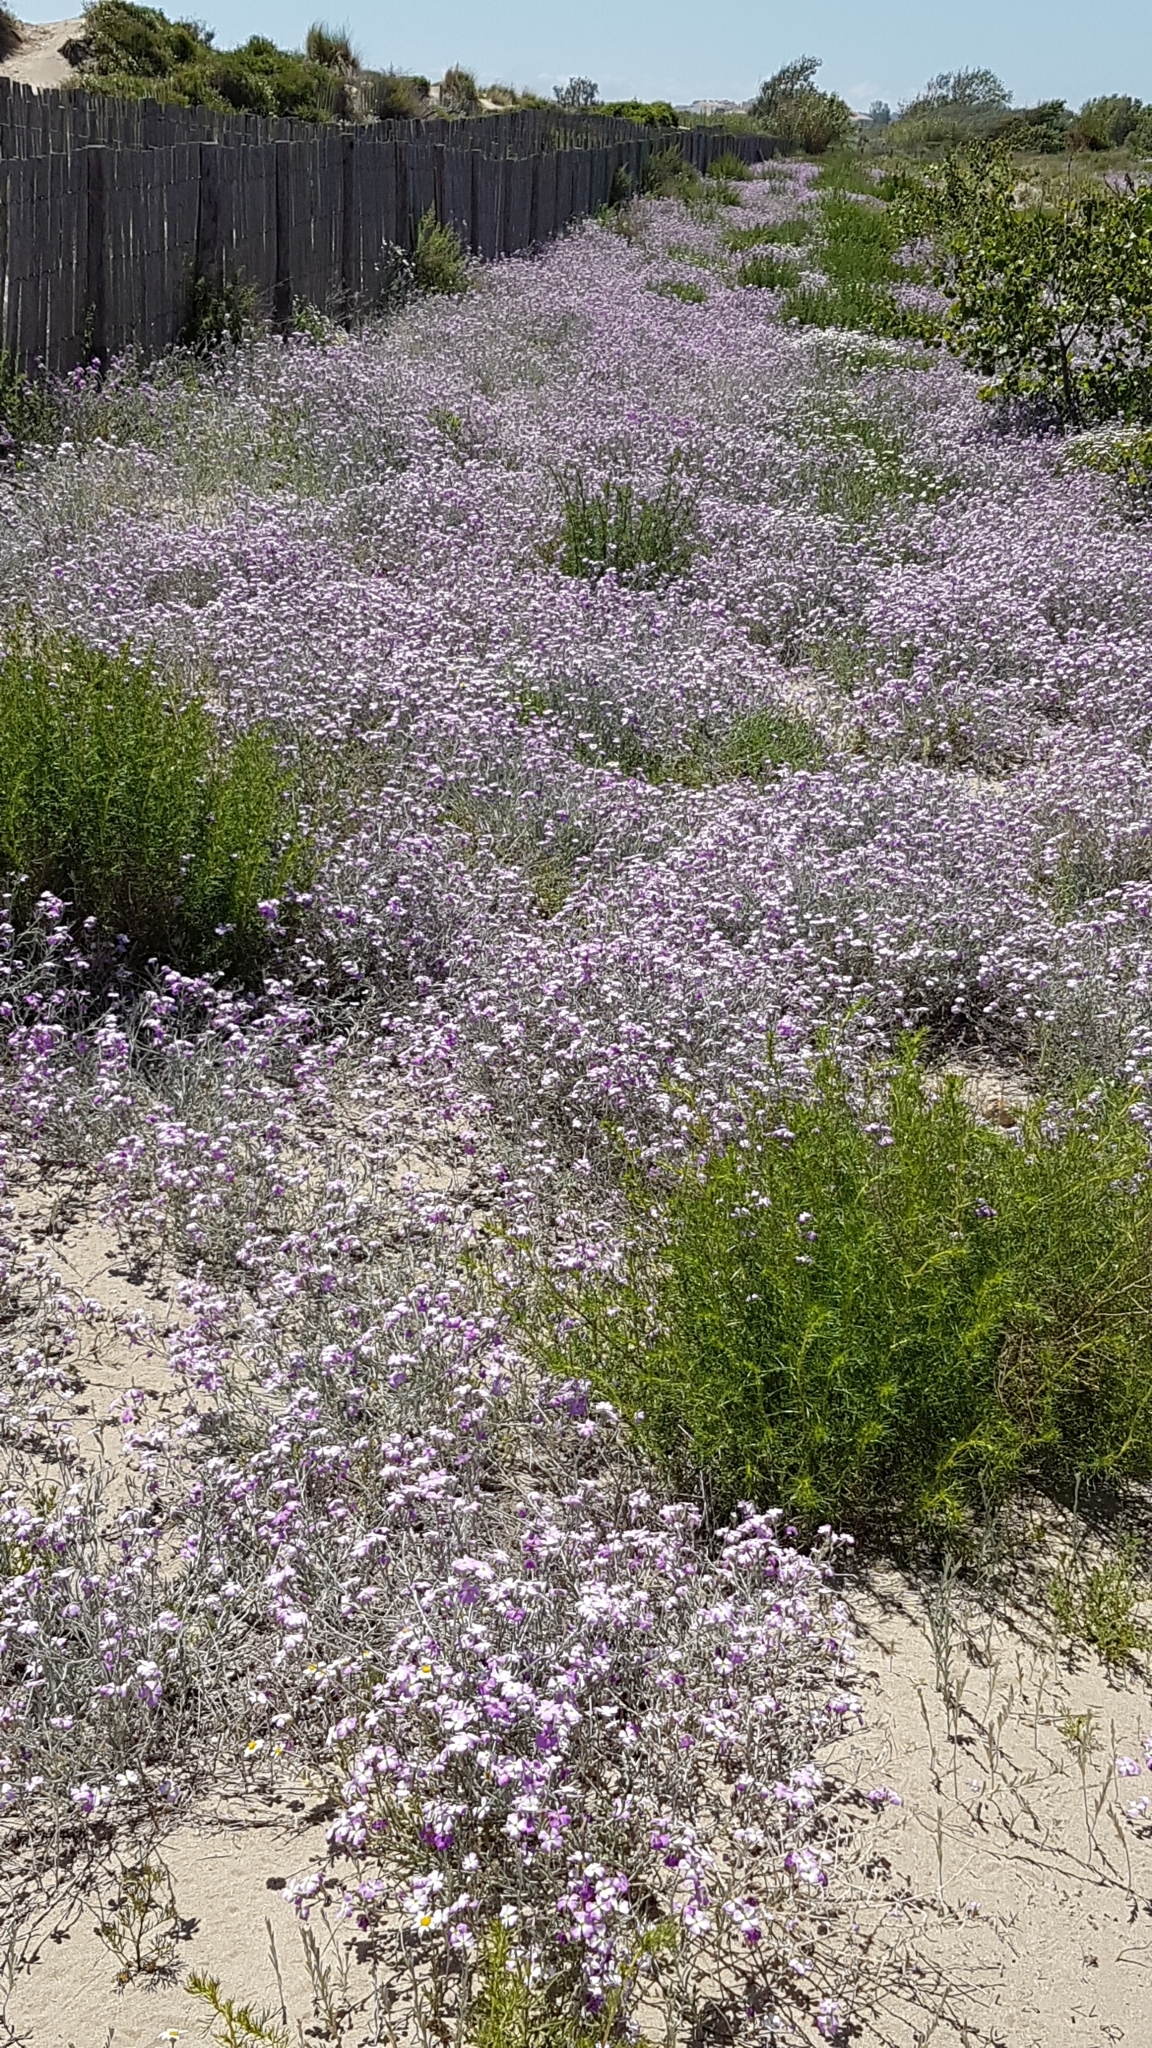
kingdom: Plantae
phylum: Tracheophyta
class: Magnoliopsida
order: Brassicales
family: Brassicaceae
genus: Marcuskochia
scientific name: Marcuskochia littorea
